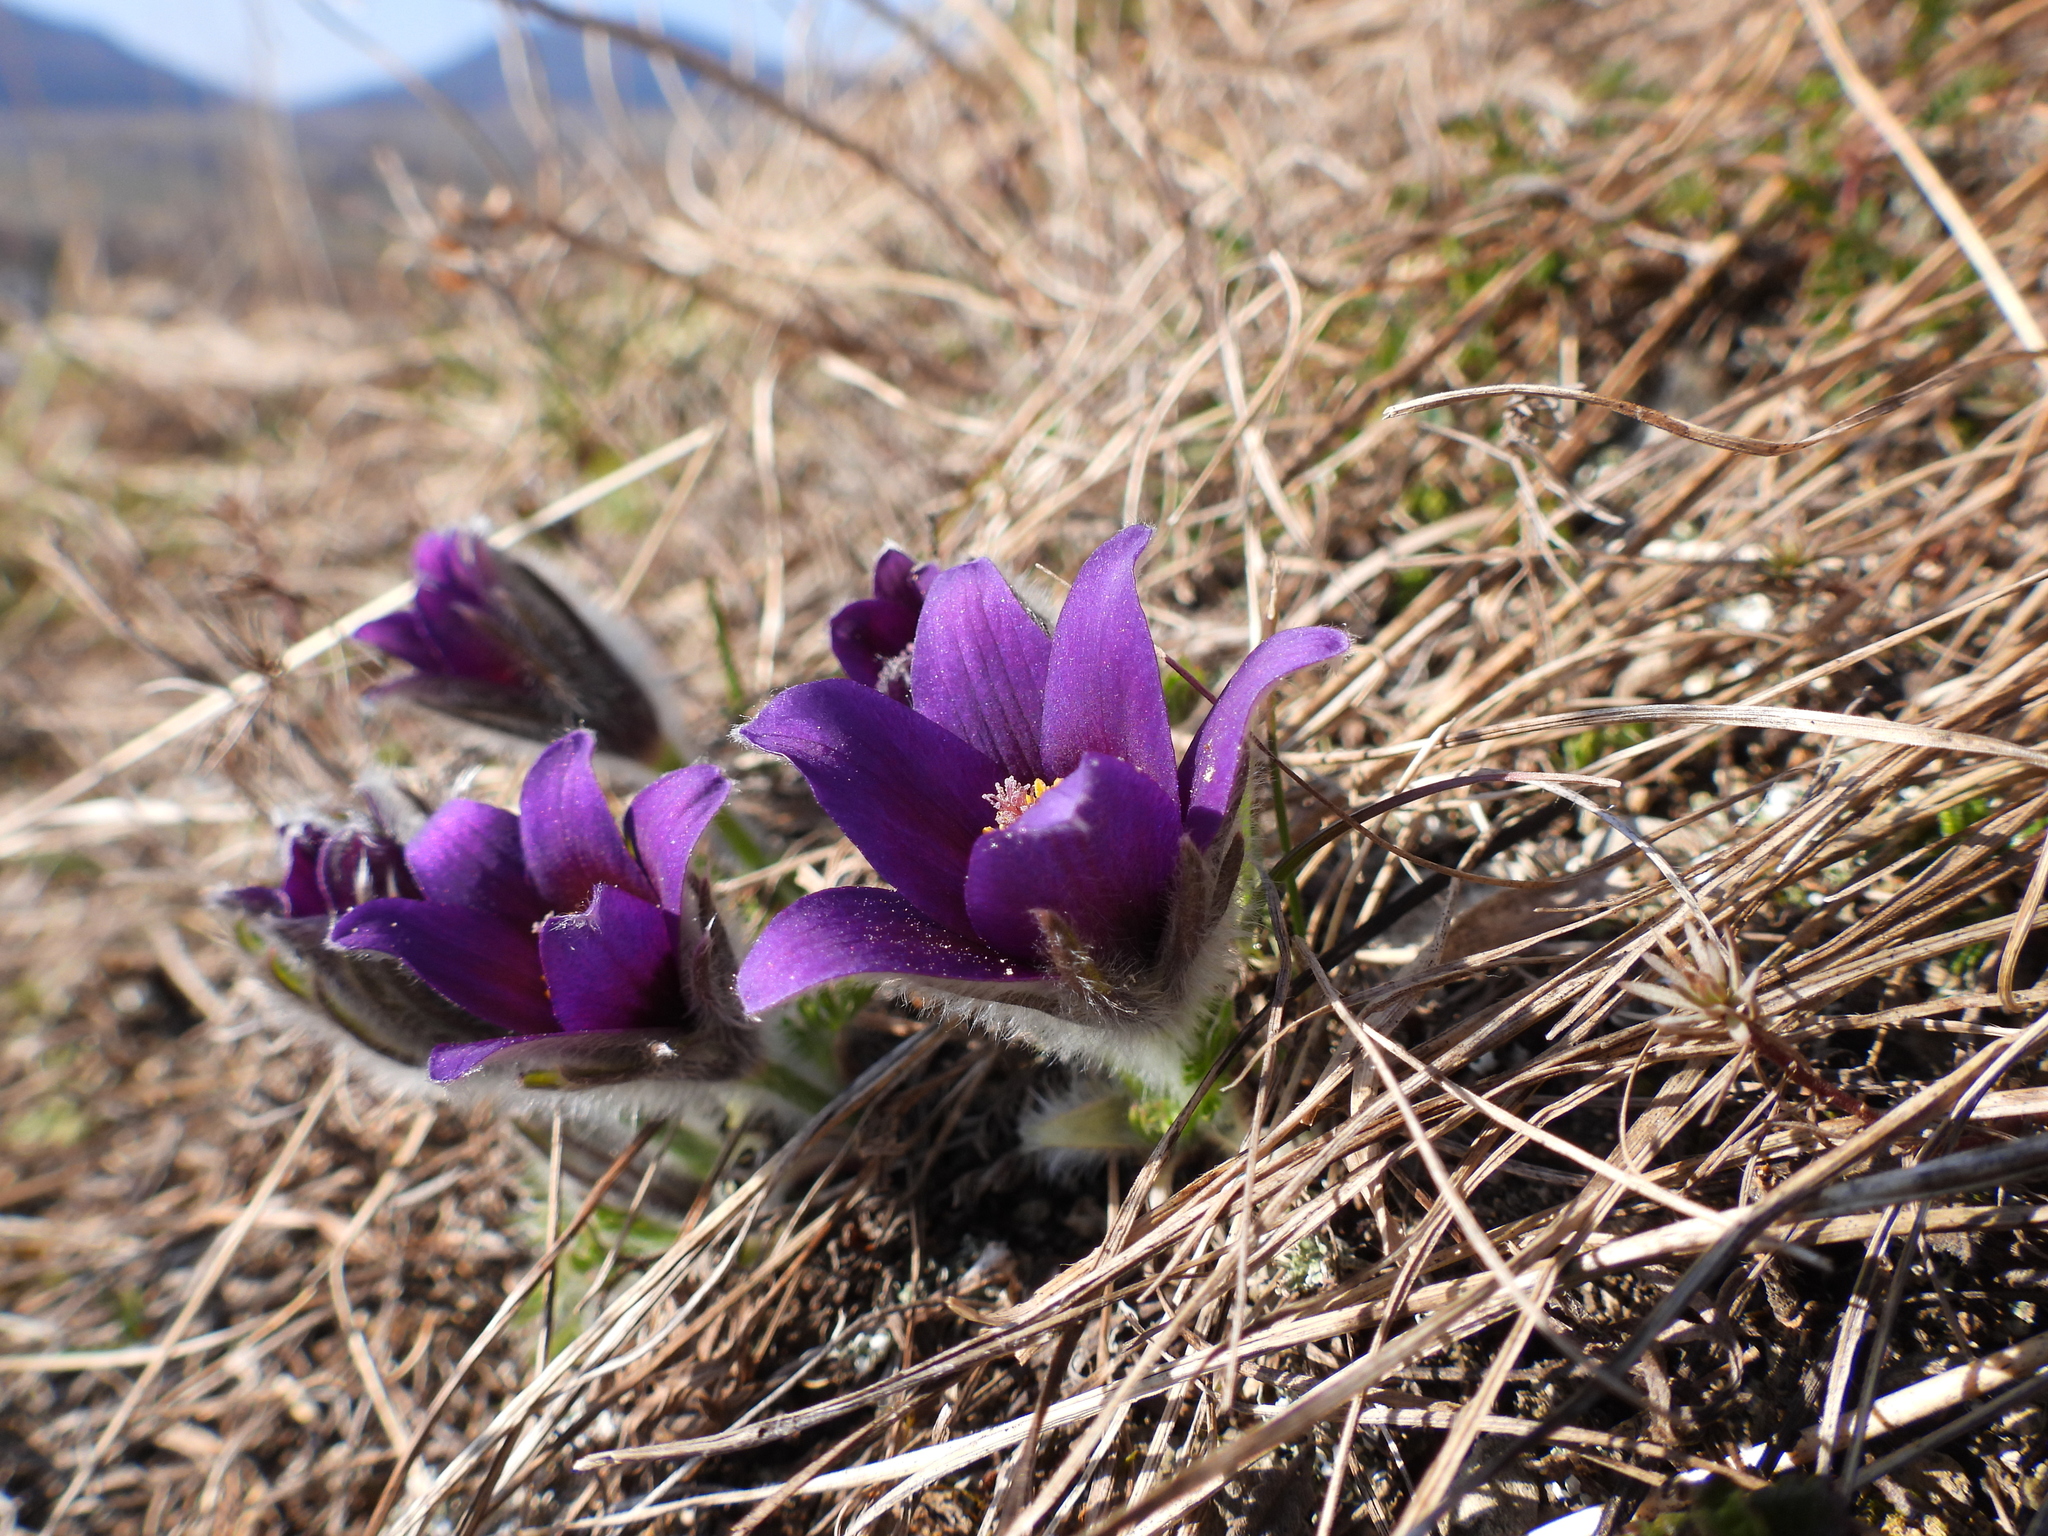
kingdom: Plantae
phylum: Tracheophyta
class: Magnoliopsida
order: Ranunculales
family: Ranunculaceae
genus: Pulsatilla
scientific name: Pulsatilla vulgaris
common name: Pasqueflower
